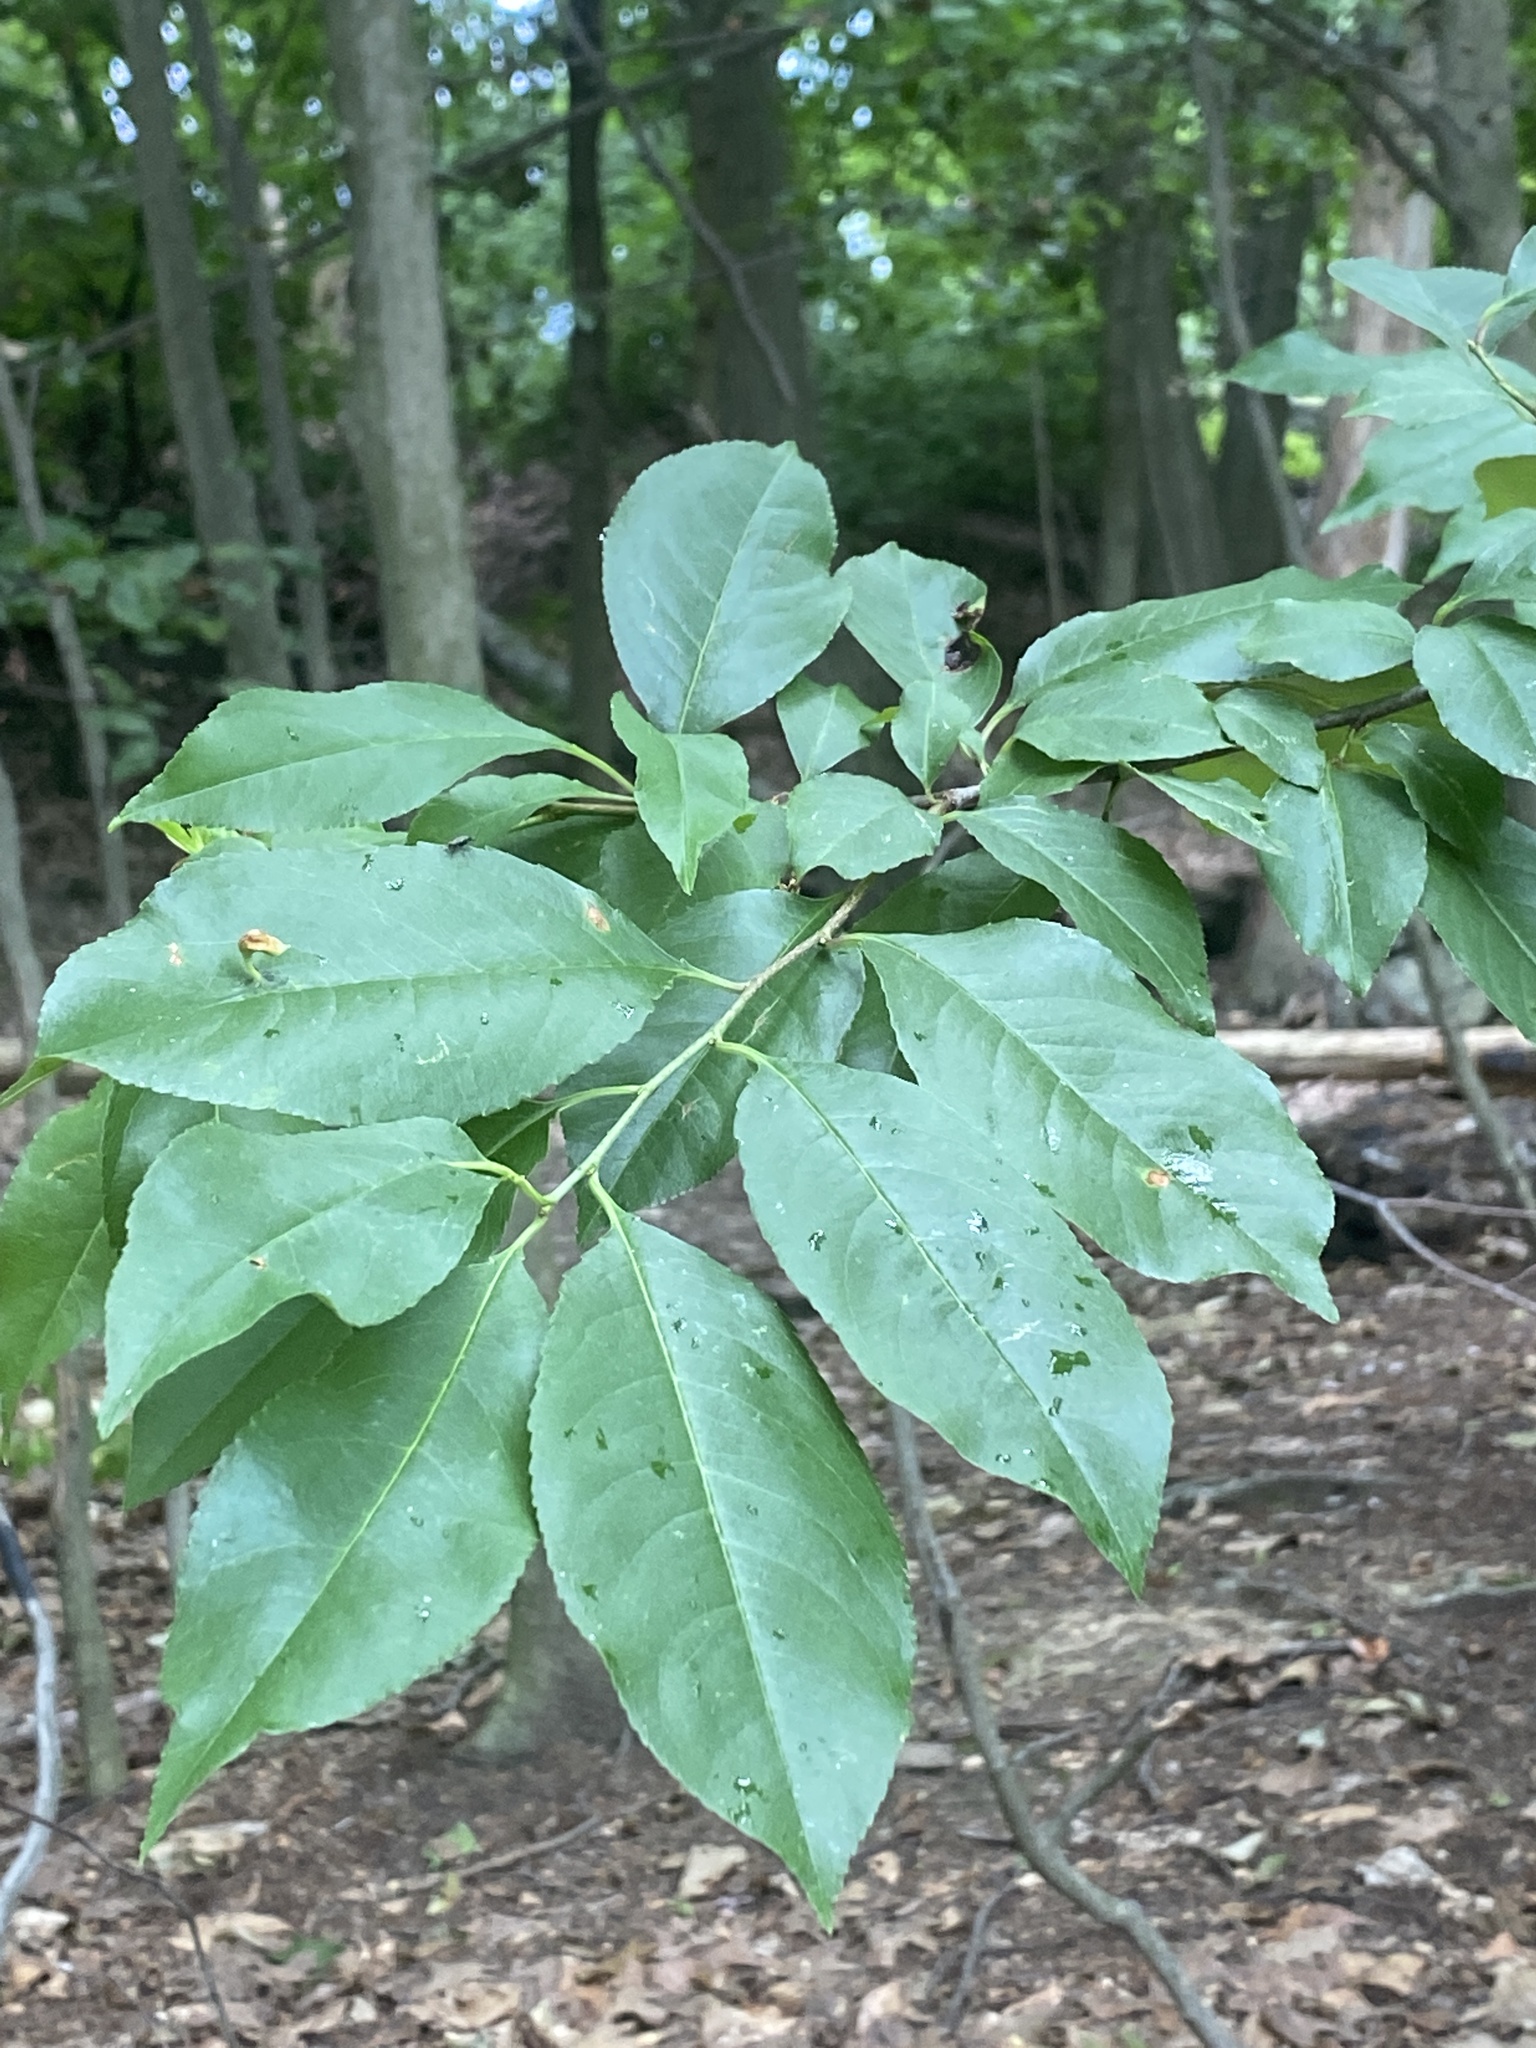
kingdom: Plantae
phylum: Tracheophyta
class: Magnoliopsida
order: Rosales
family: Rosaceae
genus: Prunus
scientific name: Prunus serotina
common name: Black cherry
